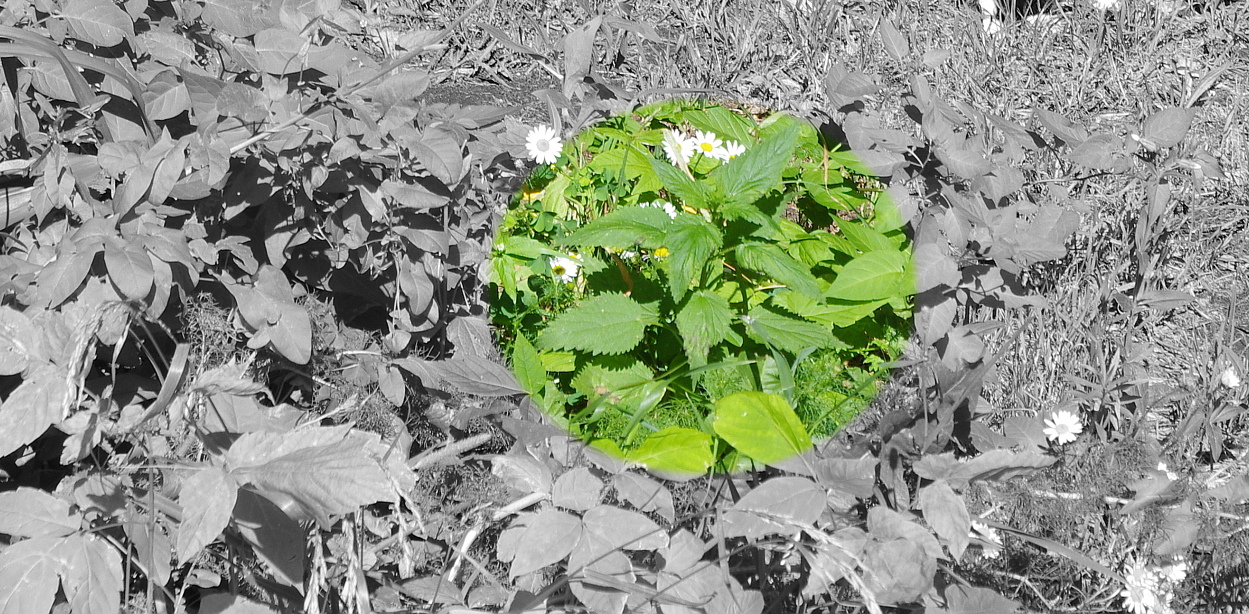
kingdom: Plantae
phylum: Tracheophyta
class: Magnoliopsida
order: Rosales
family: Urticaceae
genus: Urtica
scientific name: Urtica dioica
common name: Common nettle
